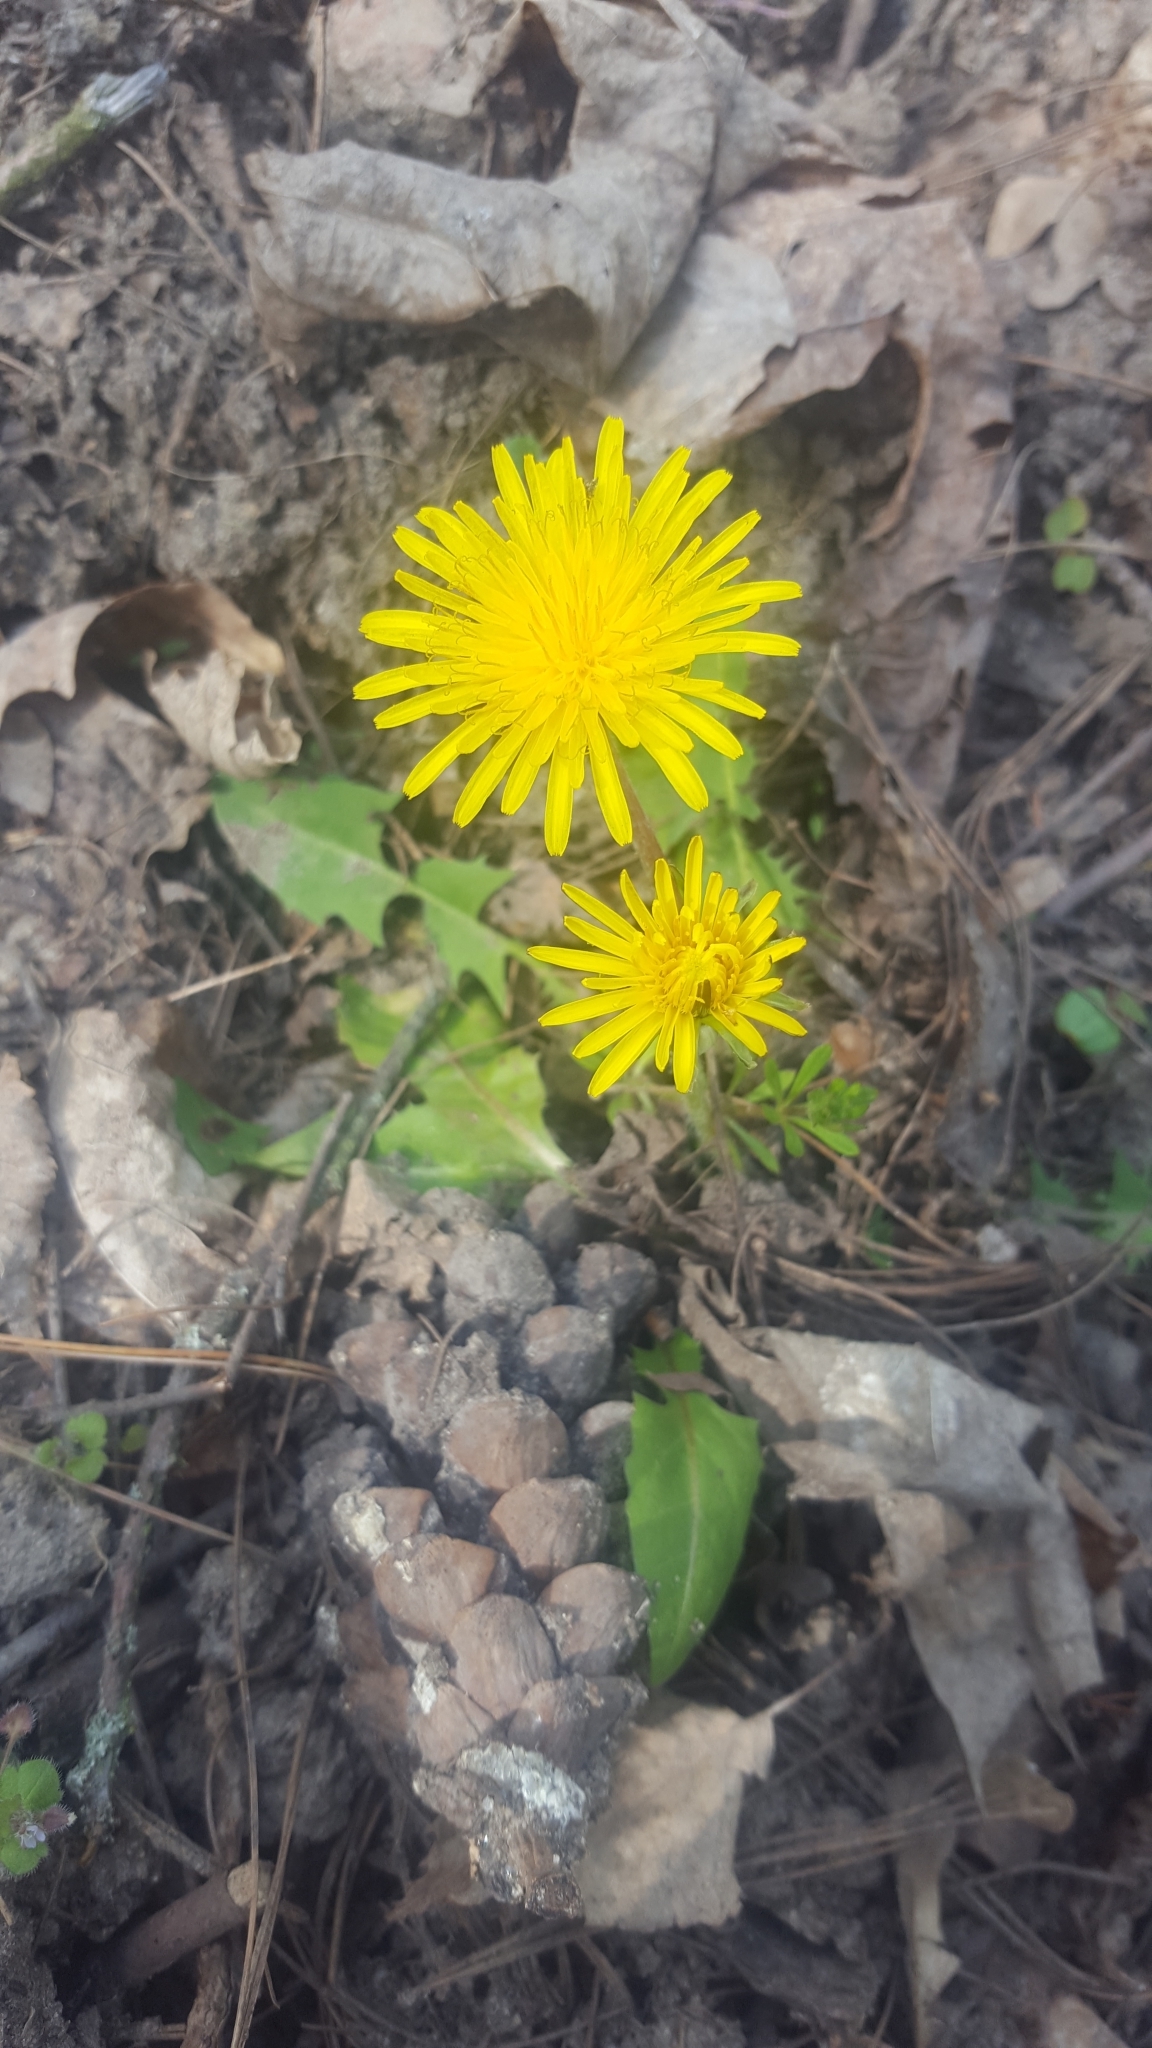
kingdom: Plantae
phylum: Tracheophyta
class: Magnoliopsida
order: Asterales
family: Asteraceae
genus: Taraxacum
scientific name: Taraxacum officinale
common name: Common dandelion
